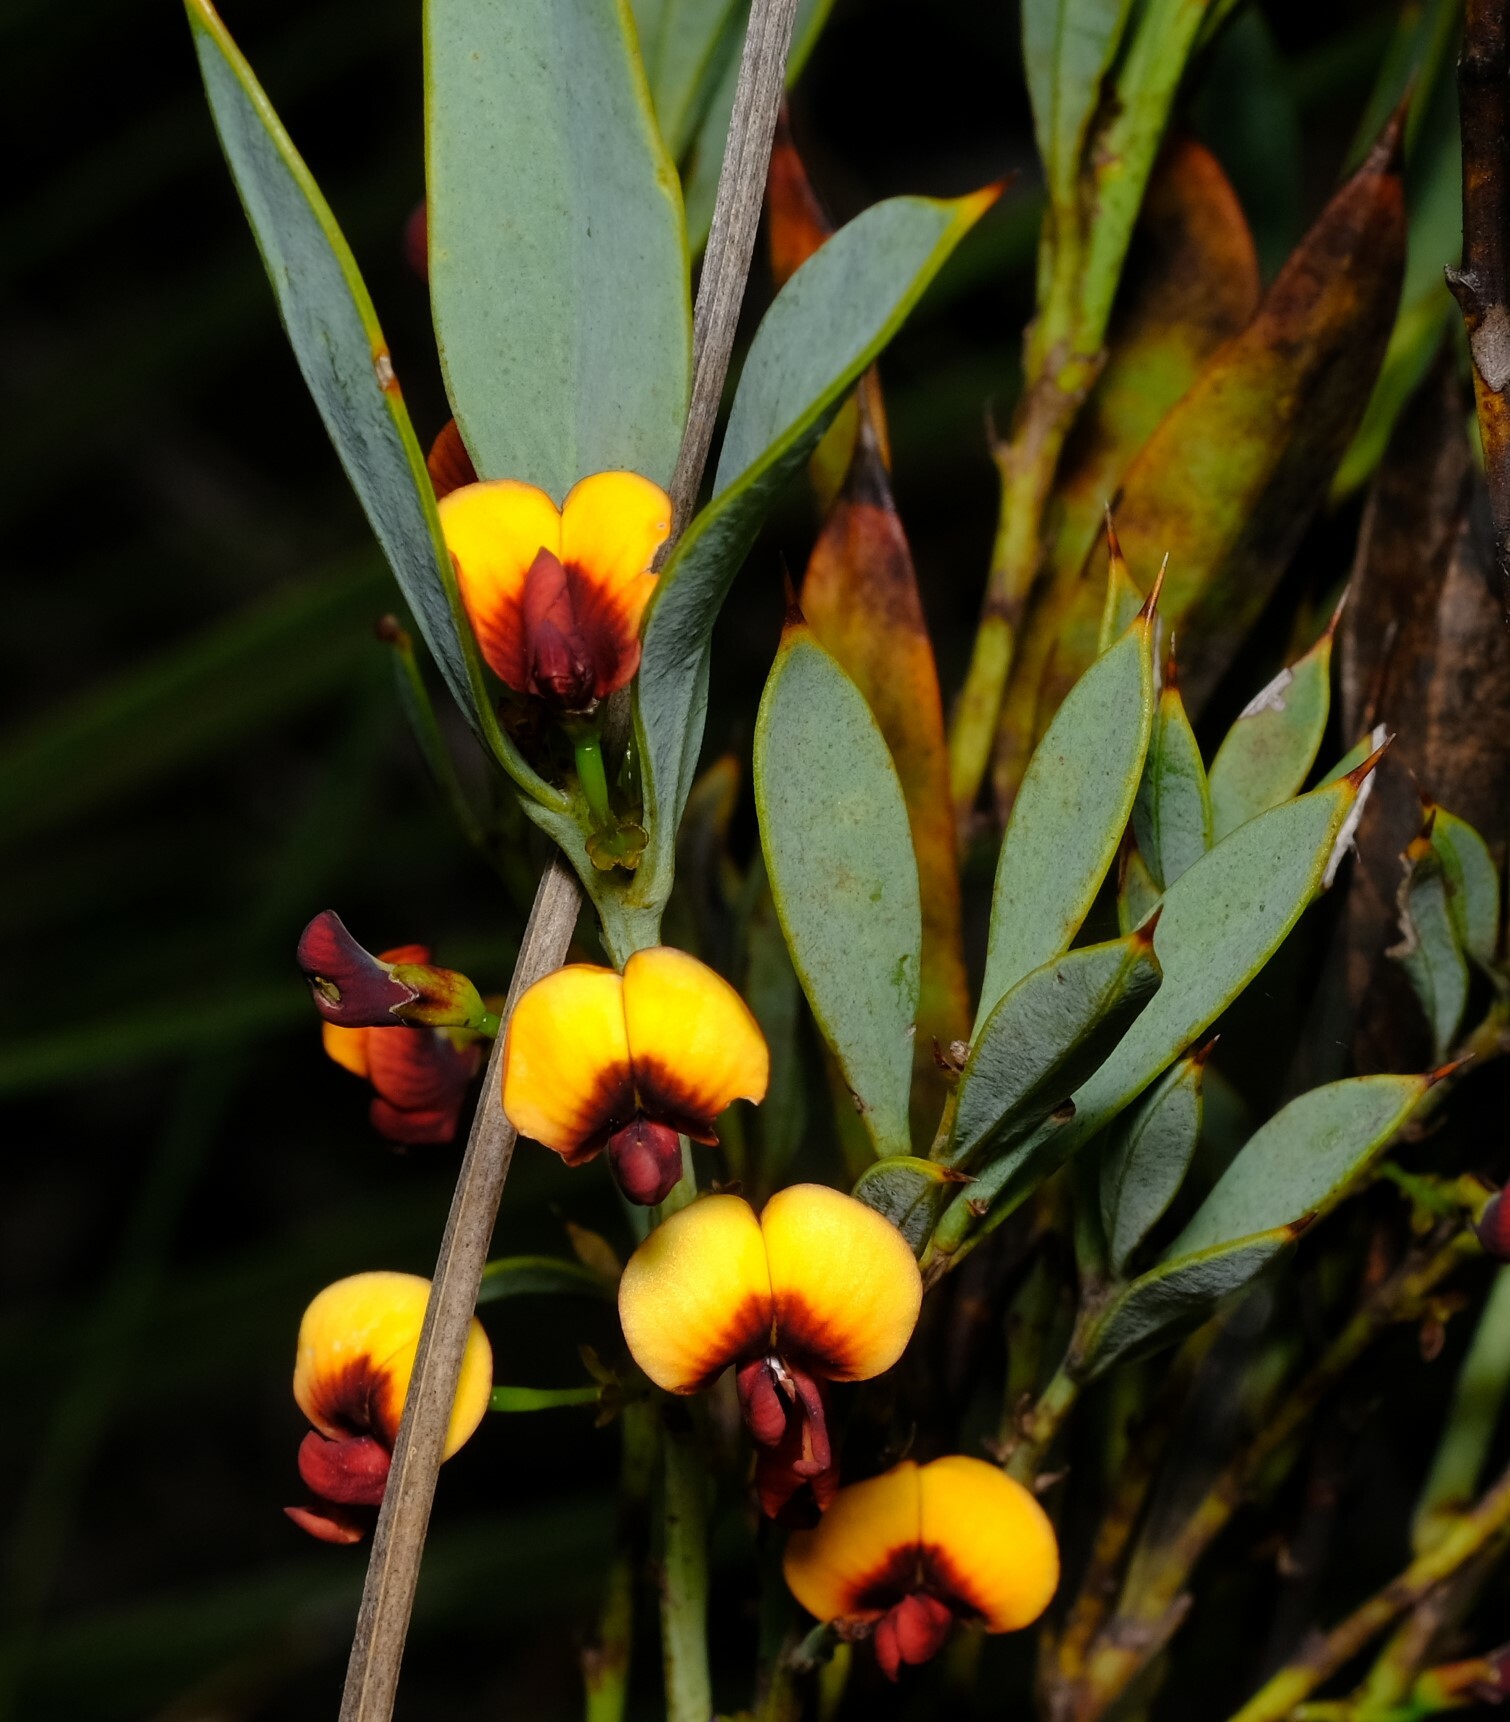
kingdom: Plantae
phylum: Tracheophyta
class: Magnoliopsida
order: Fabales
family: Fabaceae
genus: Daviesia
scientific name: Daviesia nudiflora
